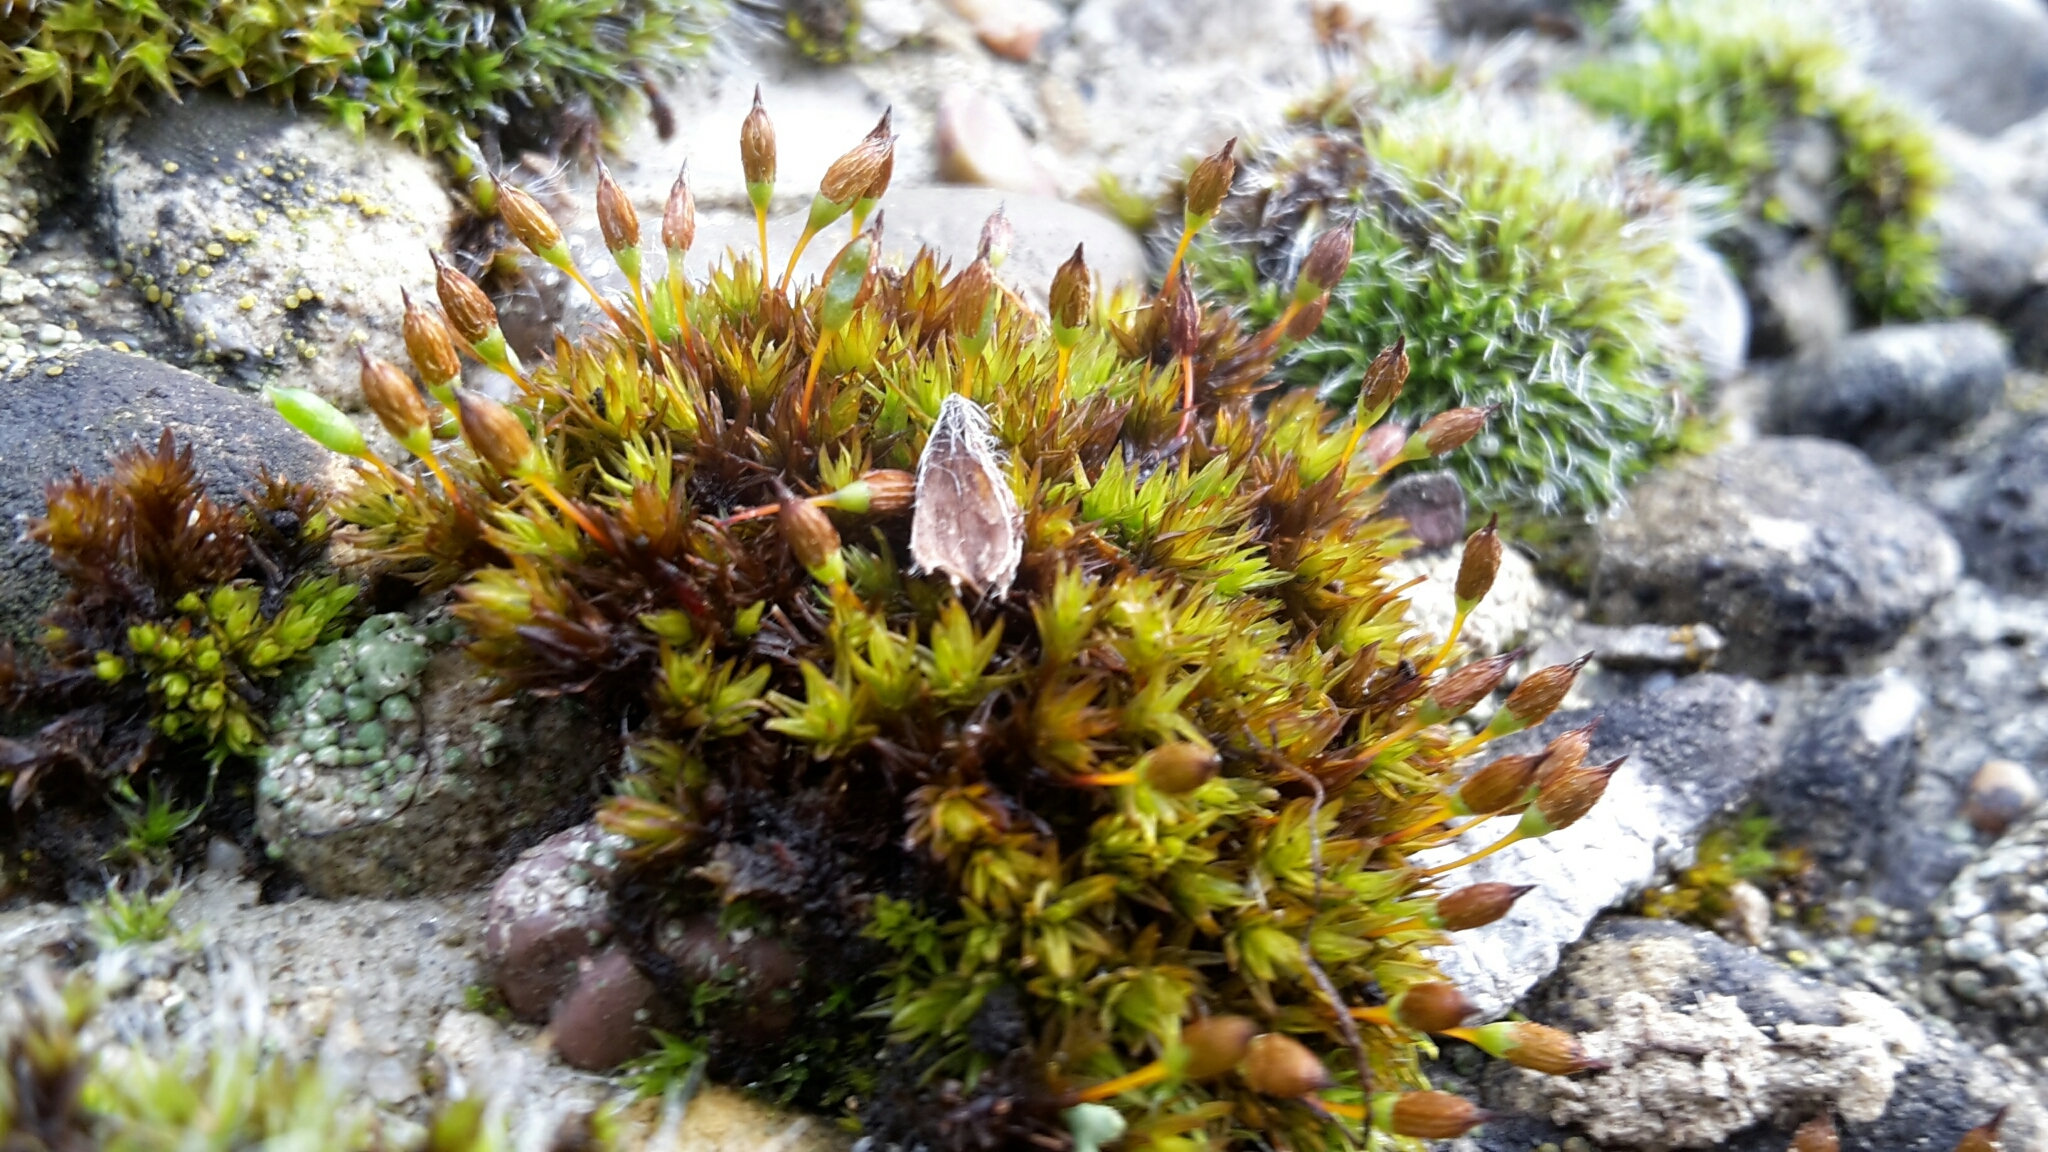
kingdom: Plantae
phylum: Bryophyta
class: Bryopsida
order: Orthotrichales
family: Orthotrichaceae
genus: Orthotrichum
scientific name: Orthotrichum anomalum
